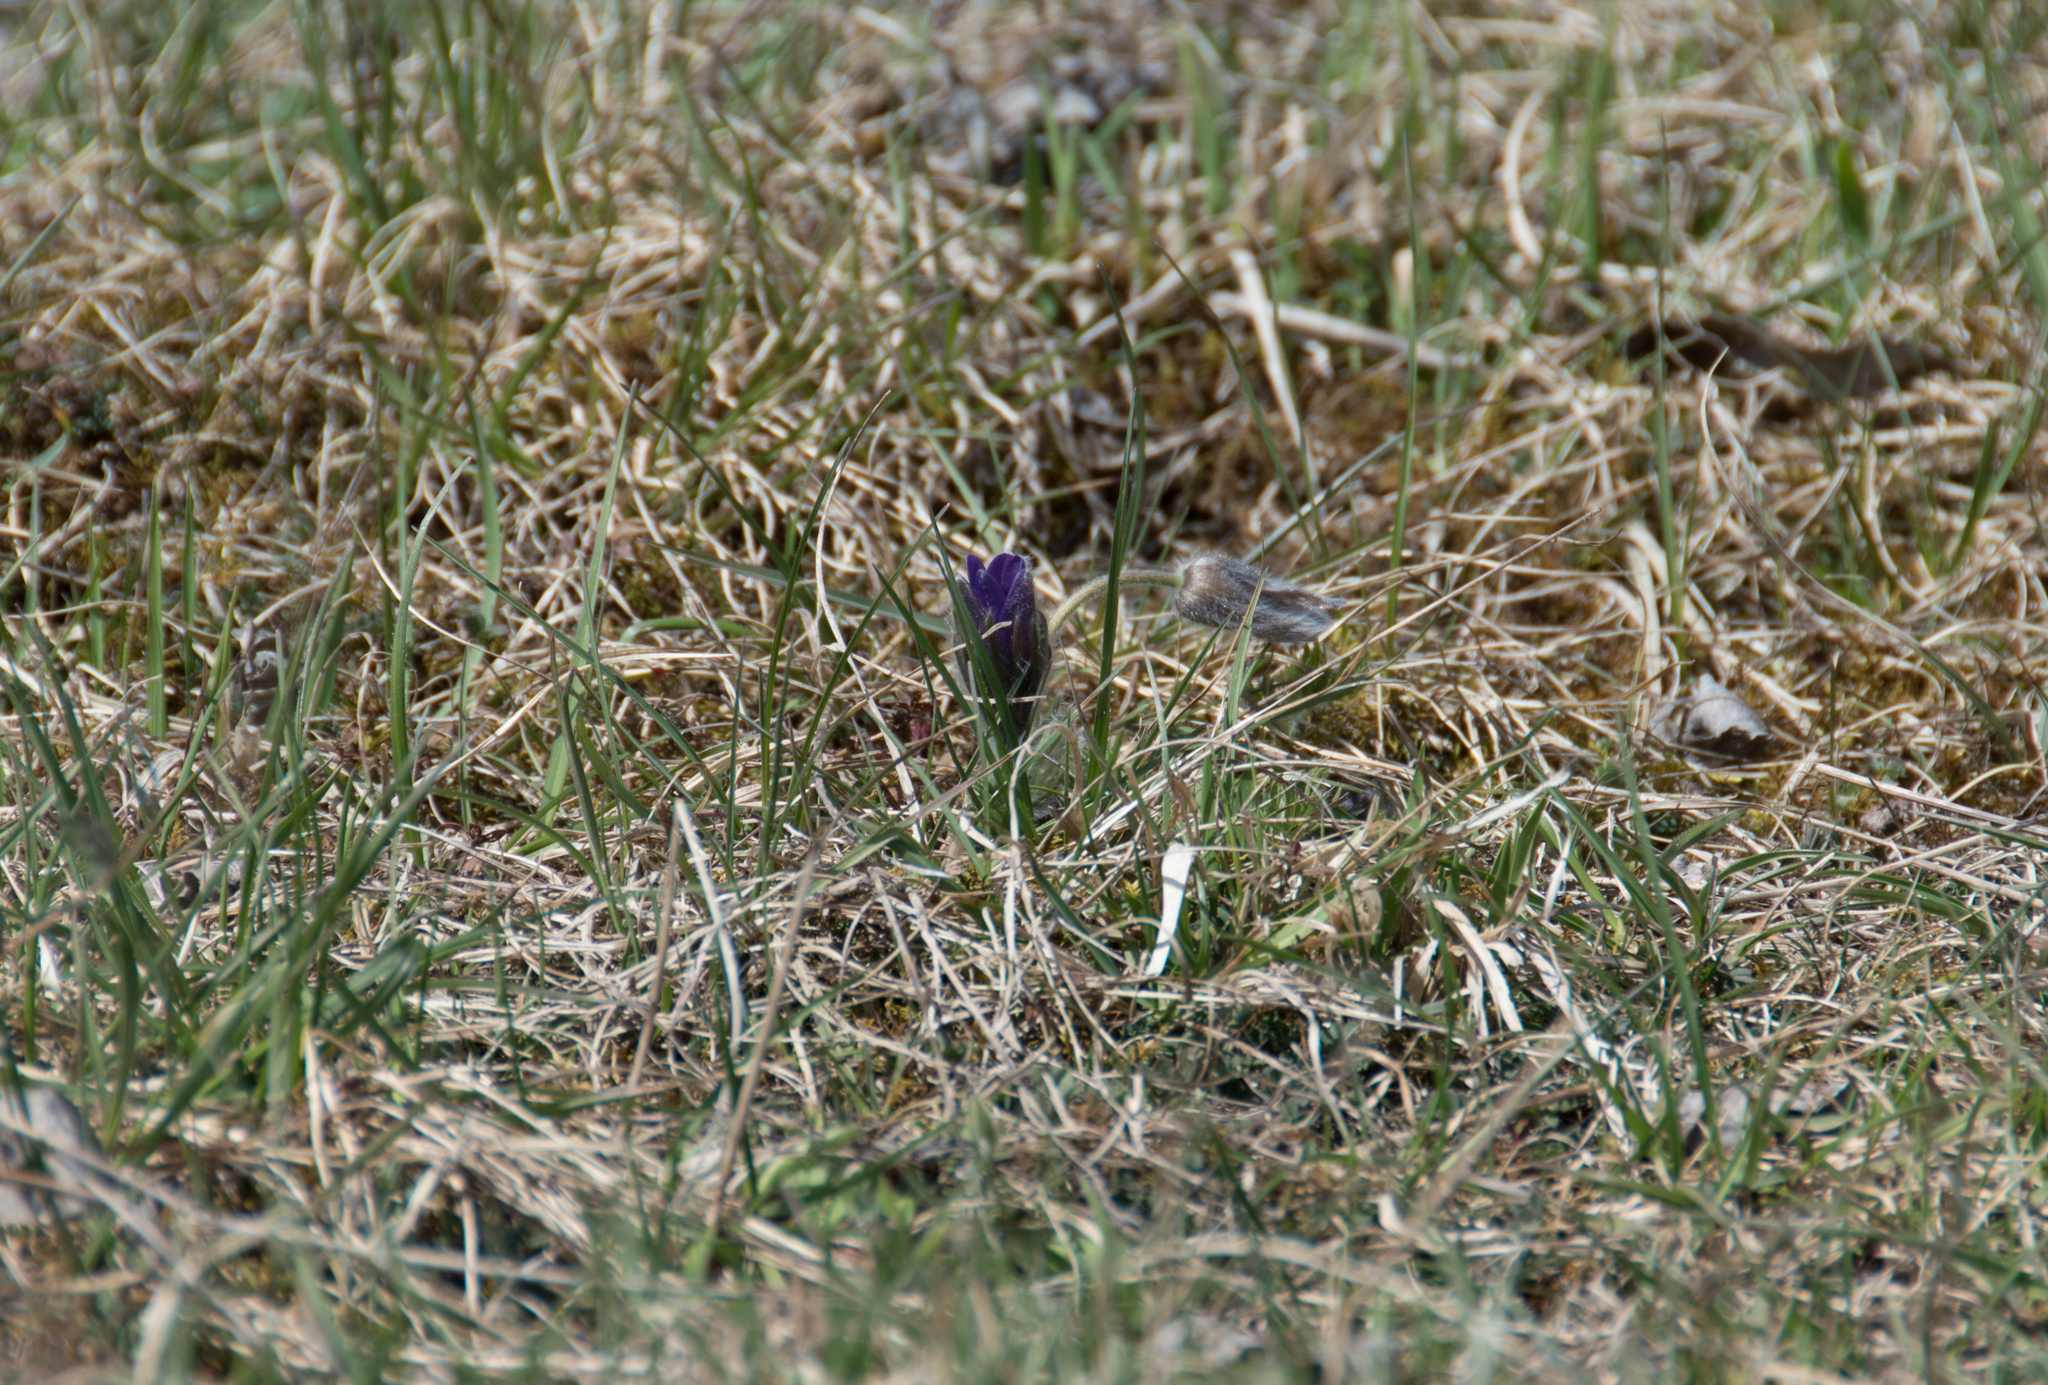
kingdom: Plantae
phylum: Tracheophyta
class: Magnoliopsida
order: Ranunculales
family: Ranunculaceae
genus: Pulsatilla
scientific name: Pulsatilla vulgaris
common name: Pasqueflower
